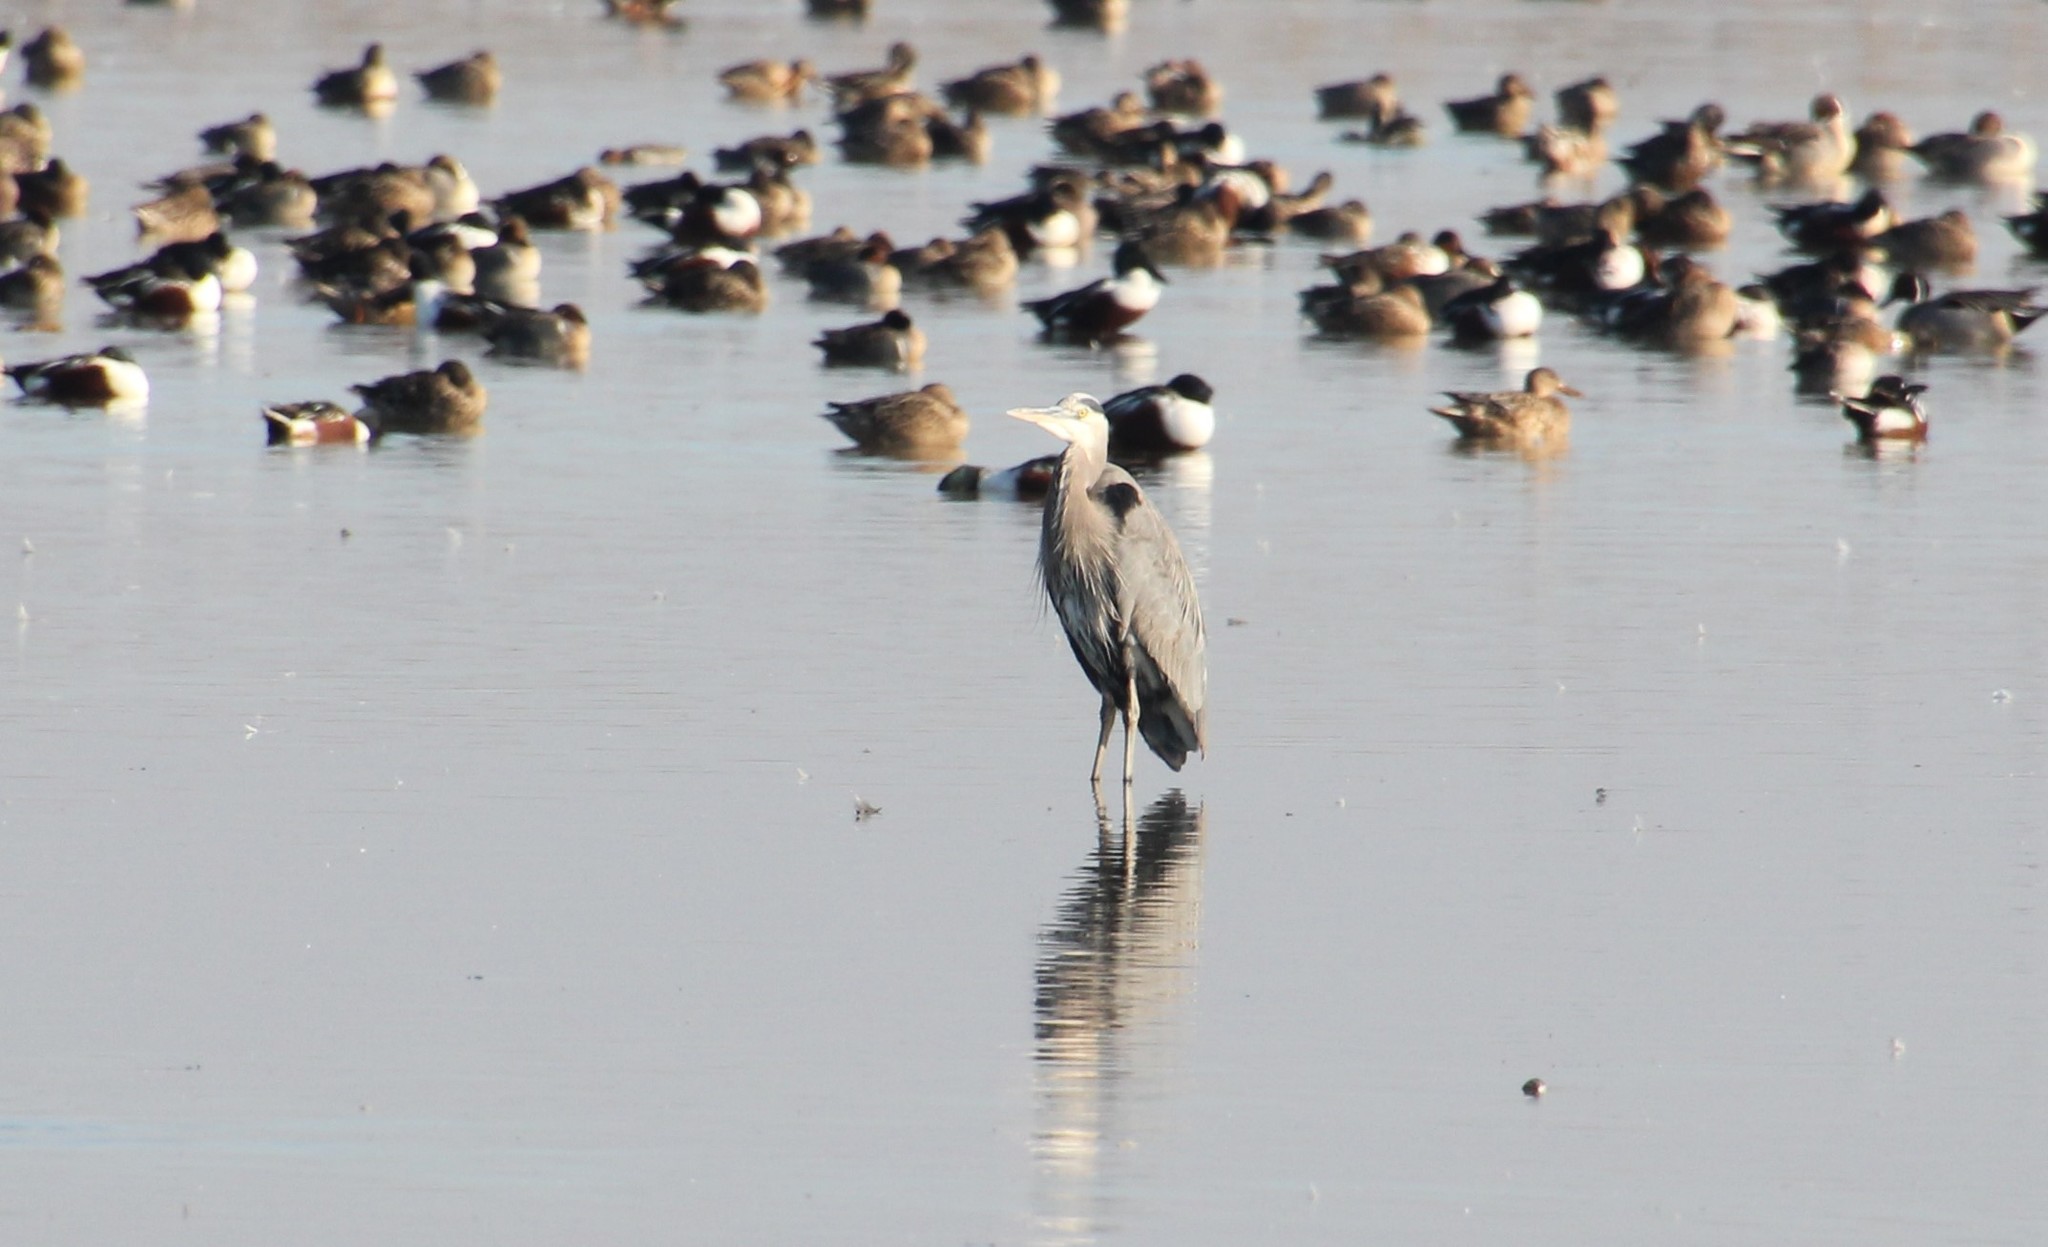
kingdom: Animalia
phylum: Chordata
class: Aves
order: Pelecaniformes
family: Ardeidae
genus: Ardea
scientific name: Ardea herodias
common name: Great blue heron
